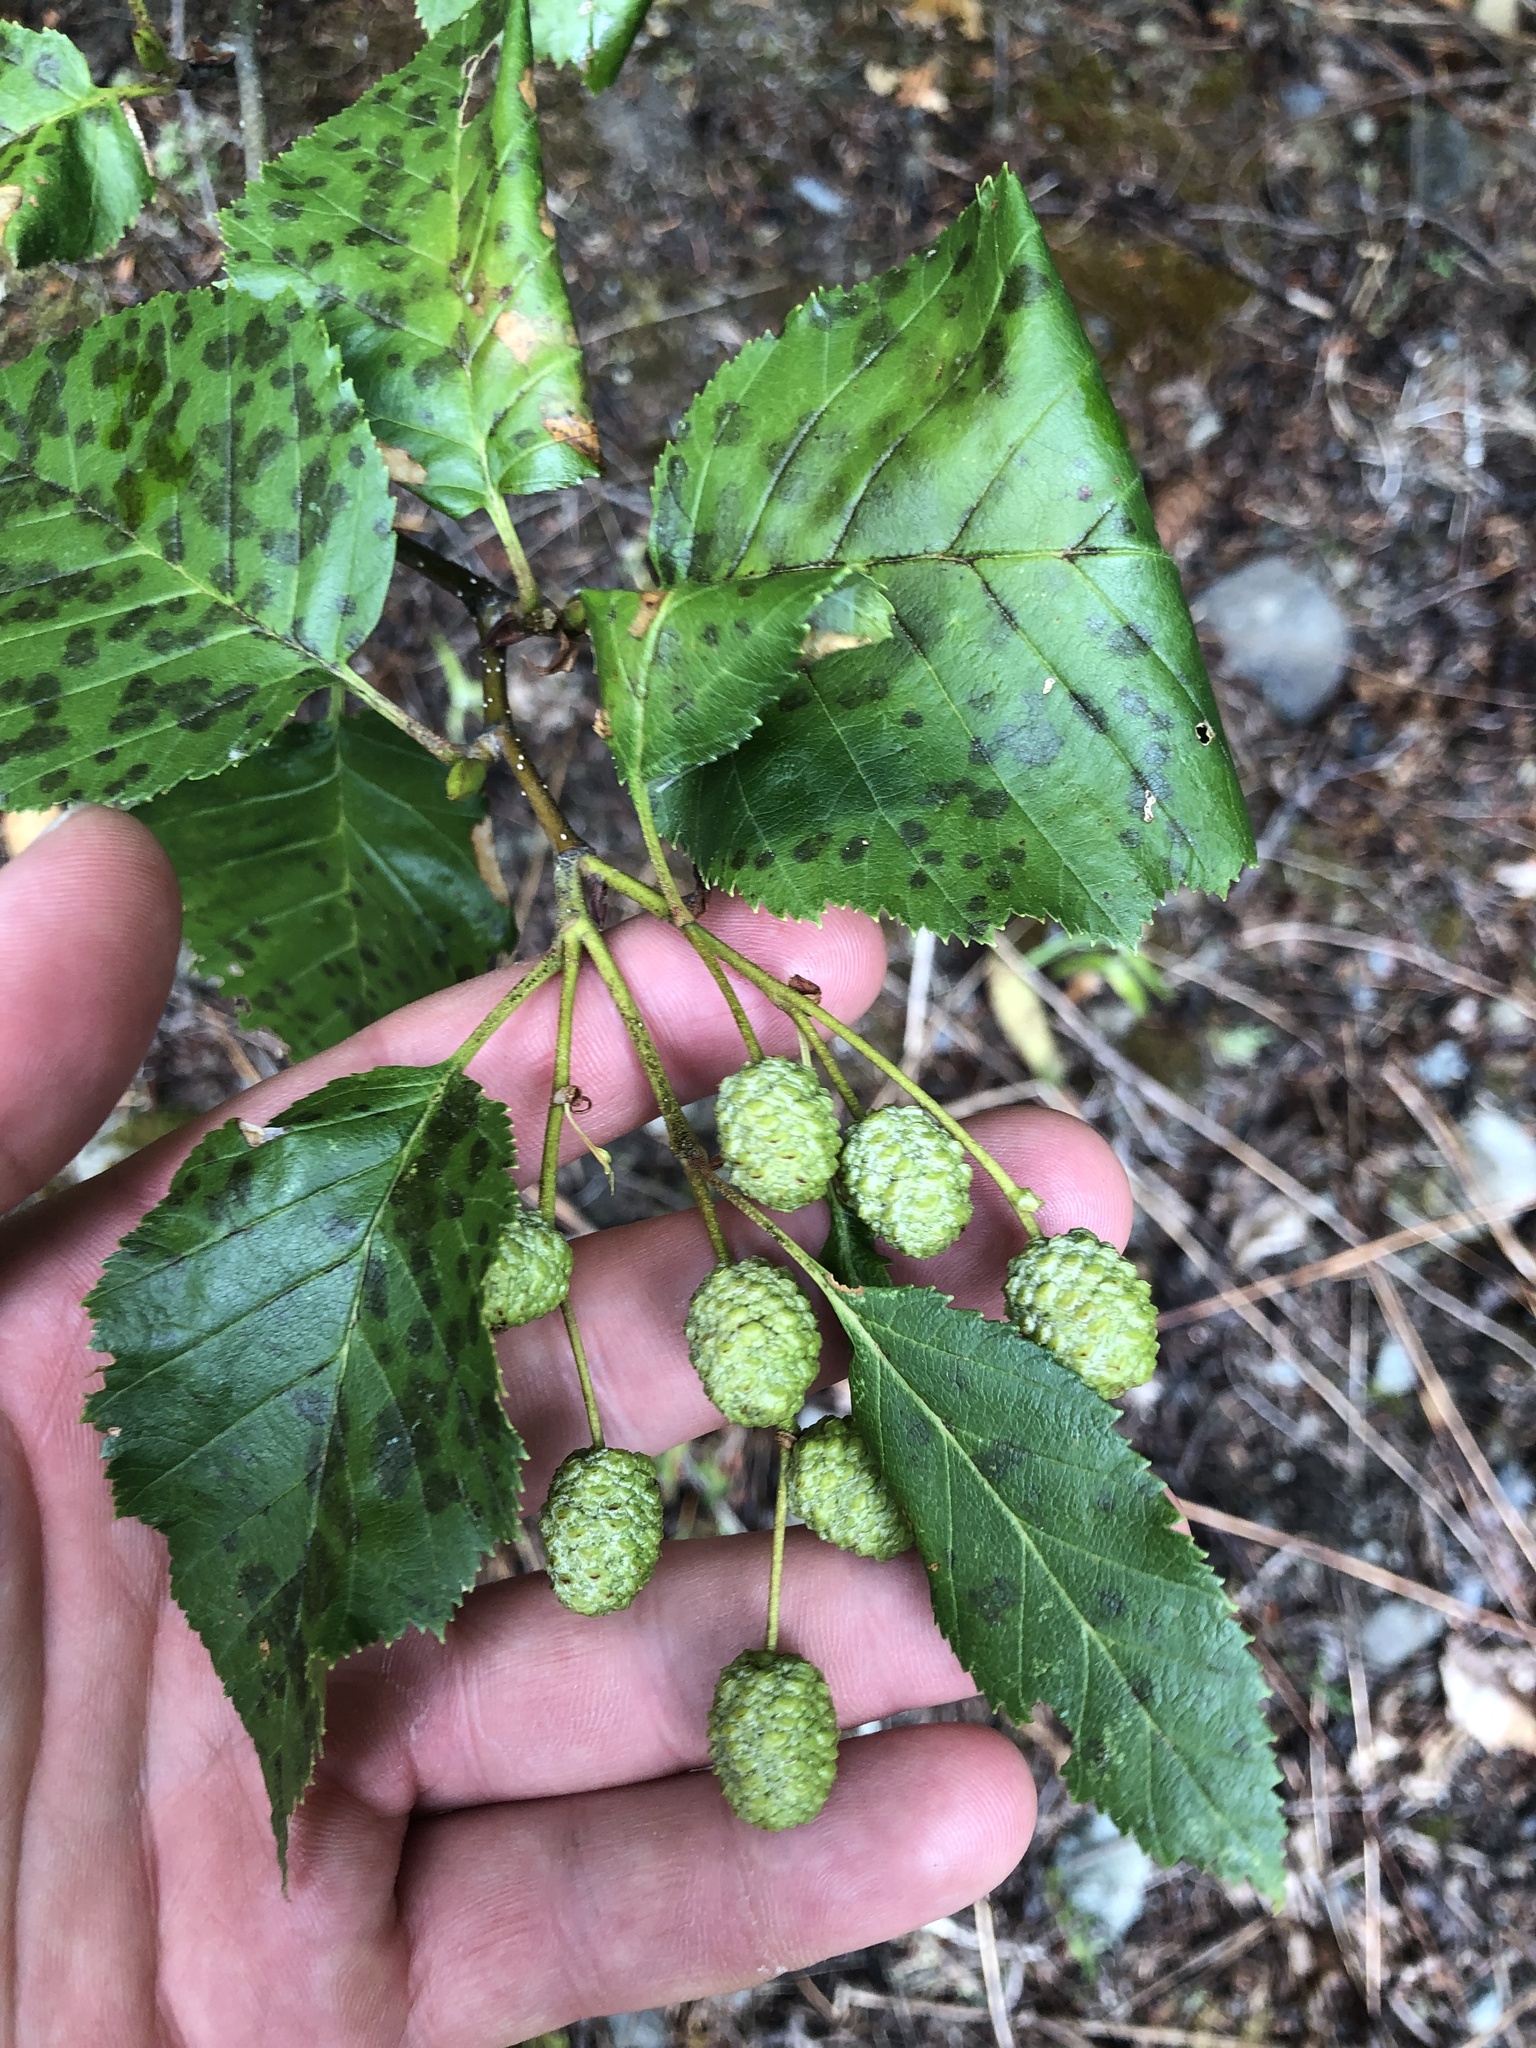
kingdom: Plantae
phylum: Tracheophyta
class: Magnoliopsida
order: Fagales
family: Betulaceae
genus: Alnus
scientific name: Alnus alnobetula
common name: Green alder
